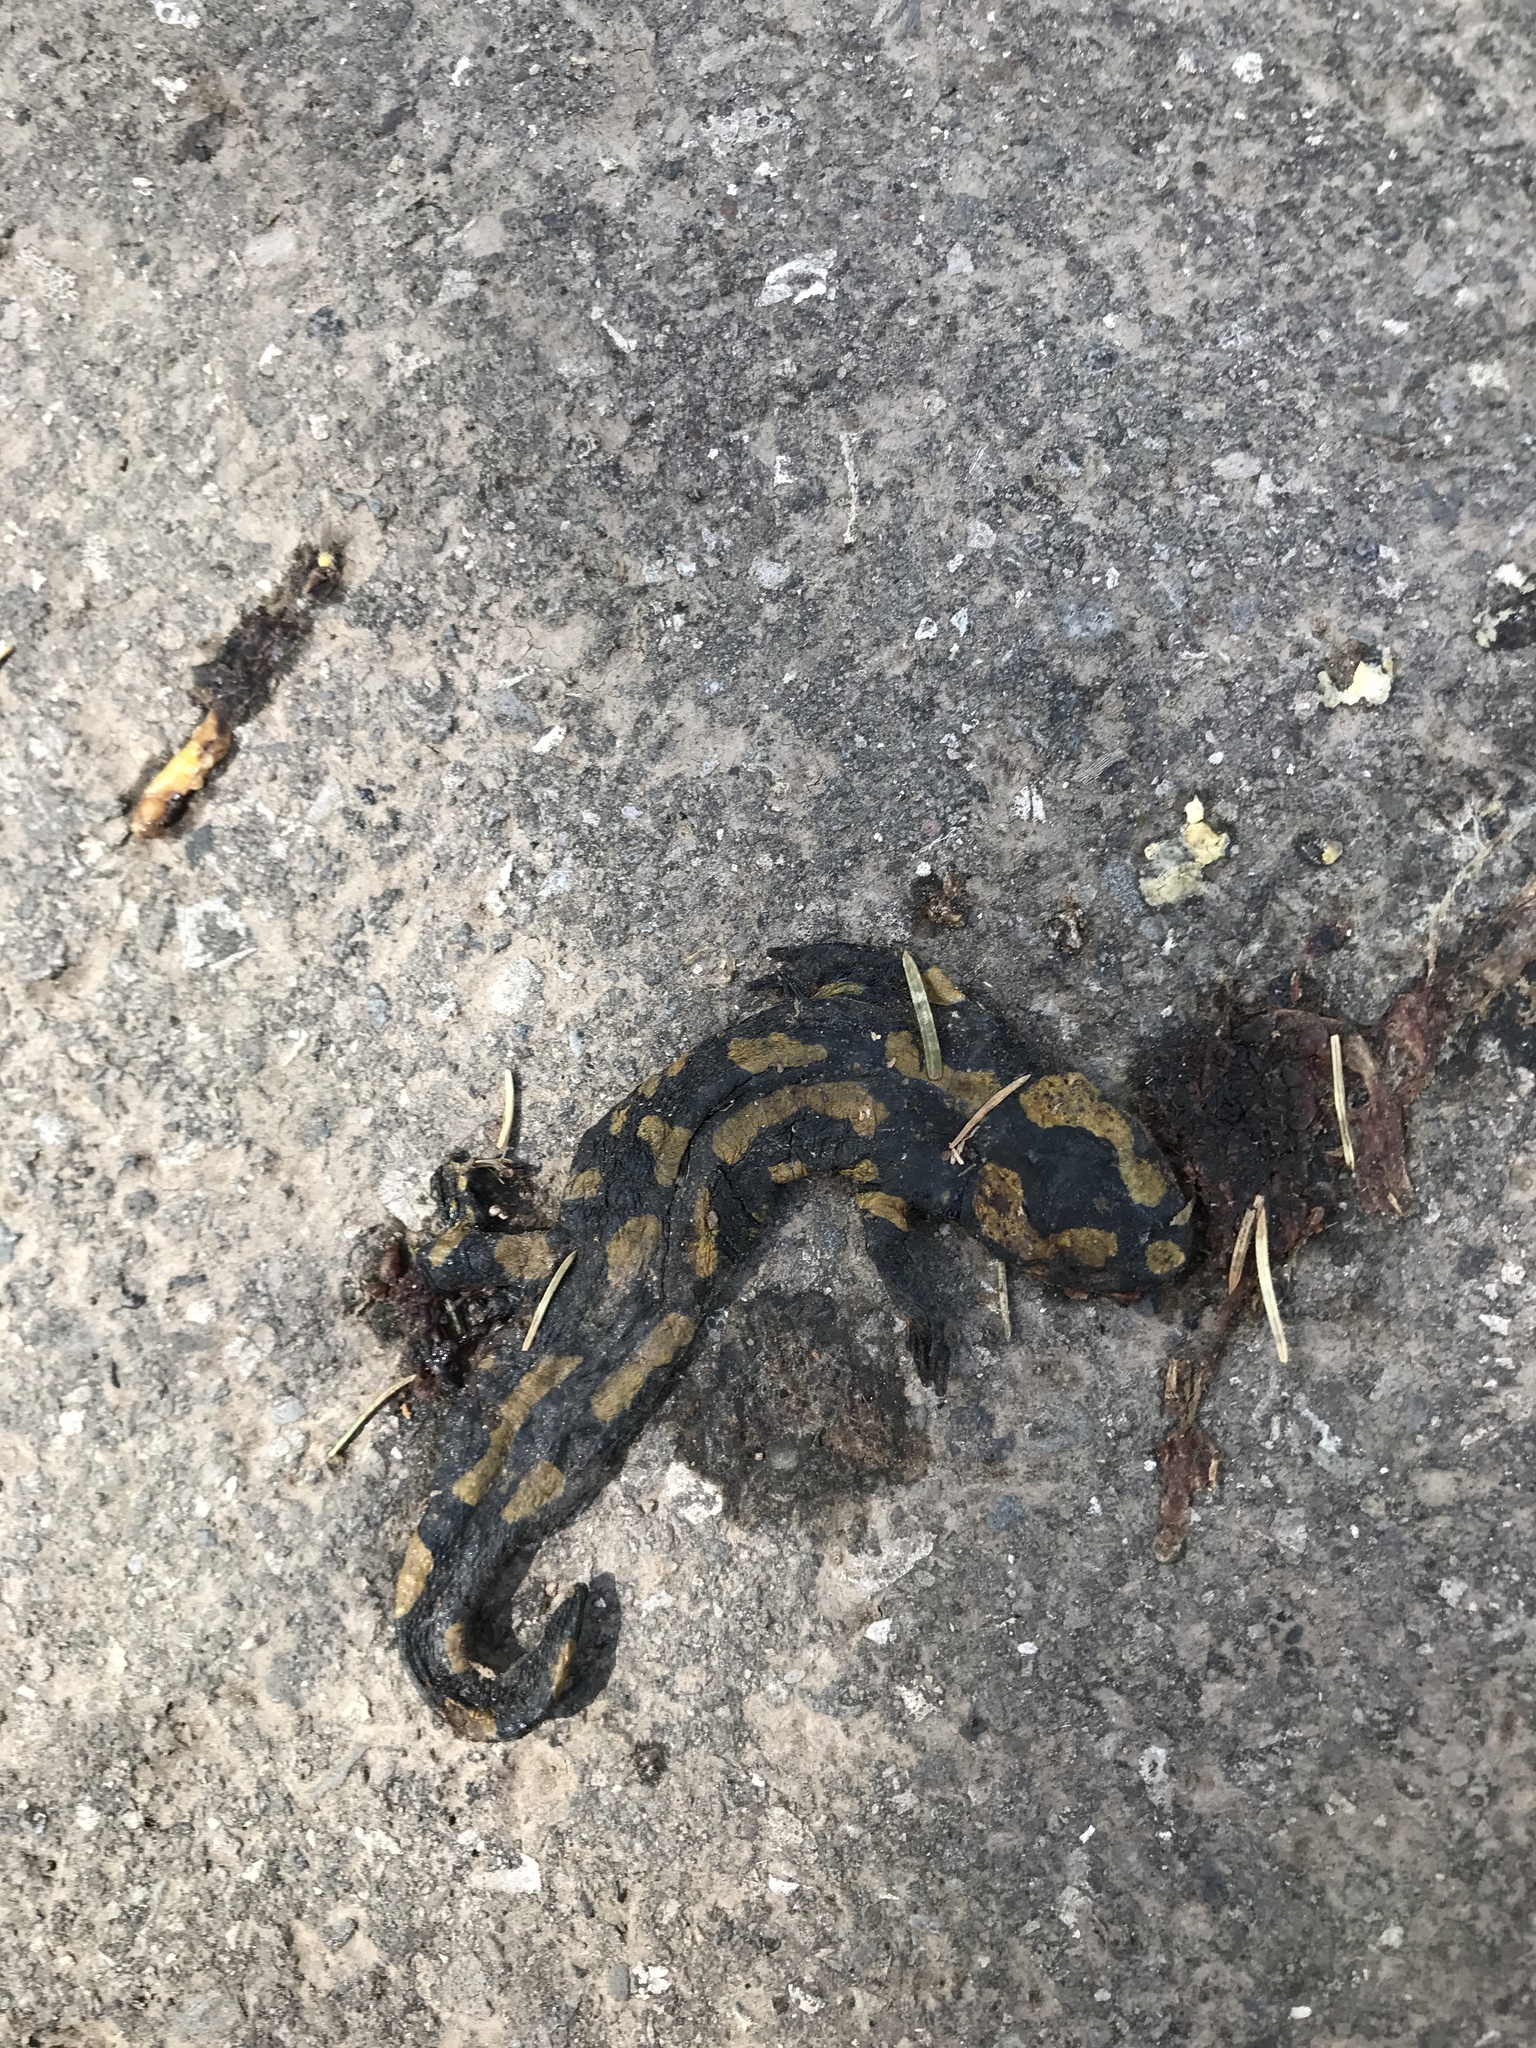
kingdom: Animalia
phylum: Chordata
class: Amphibia
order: Caudata
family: Salamandridae
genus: Salamandra
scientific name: Salamandra salamandra
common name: Fire salamander
